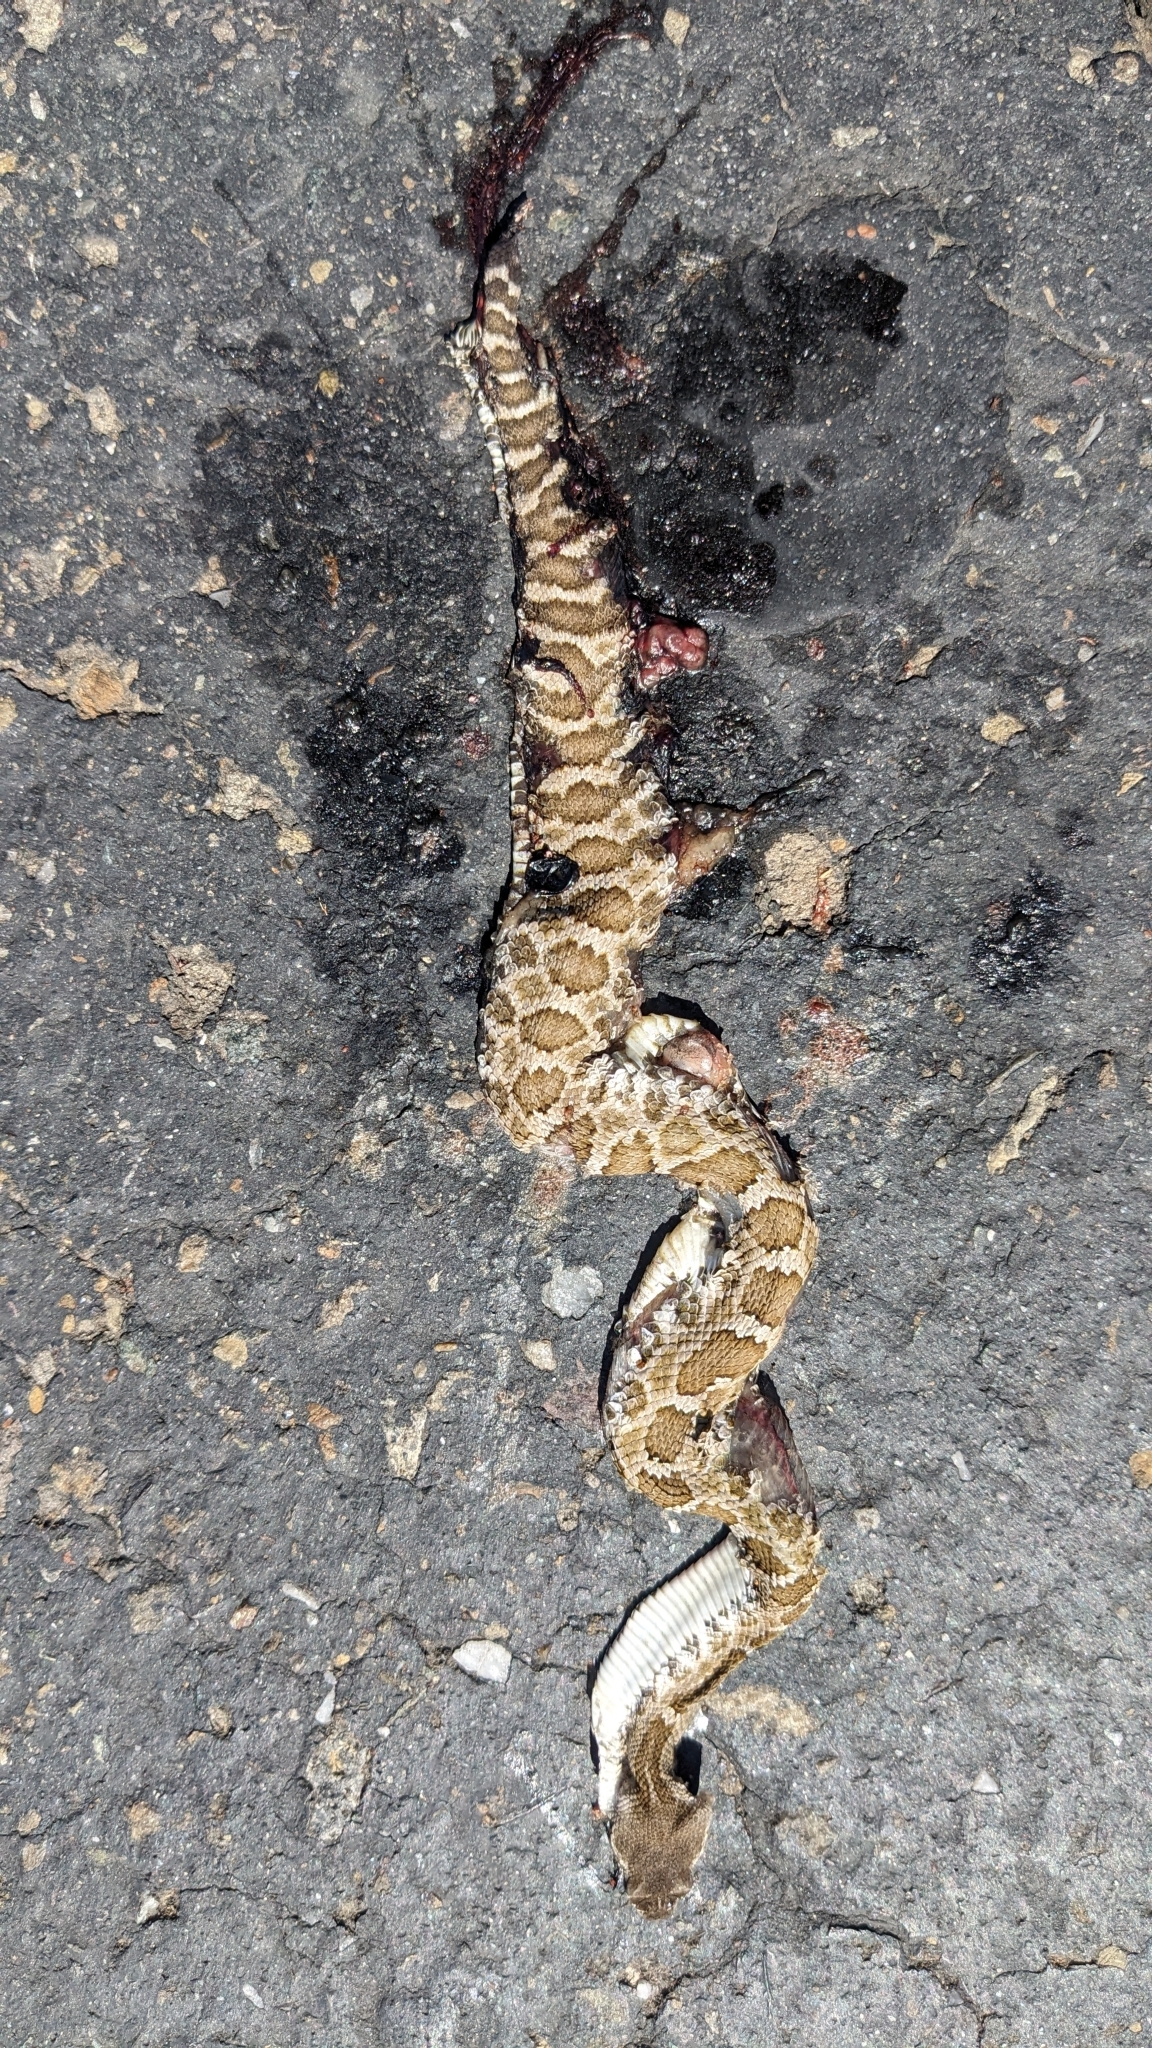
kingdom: Animalia
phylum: Chordata
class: Squamata
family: Viperidae
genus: Crotalus
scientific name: Crotalus oreganus
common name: Abyssus
